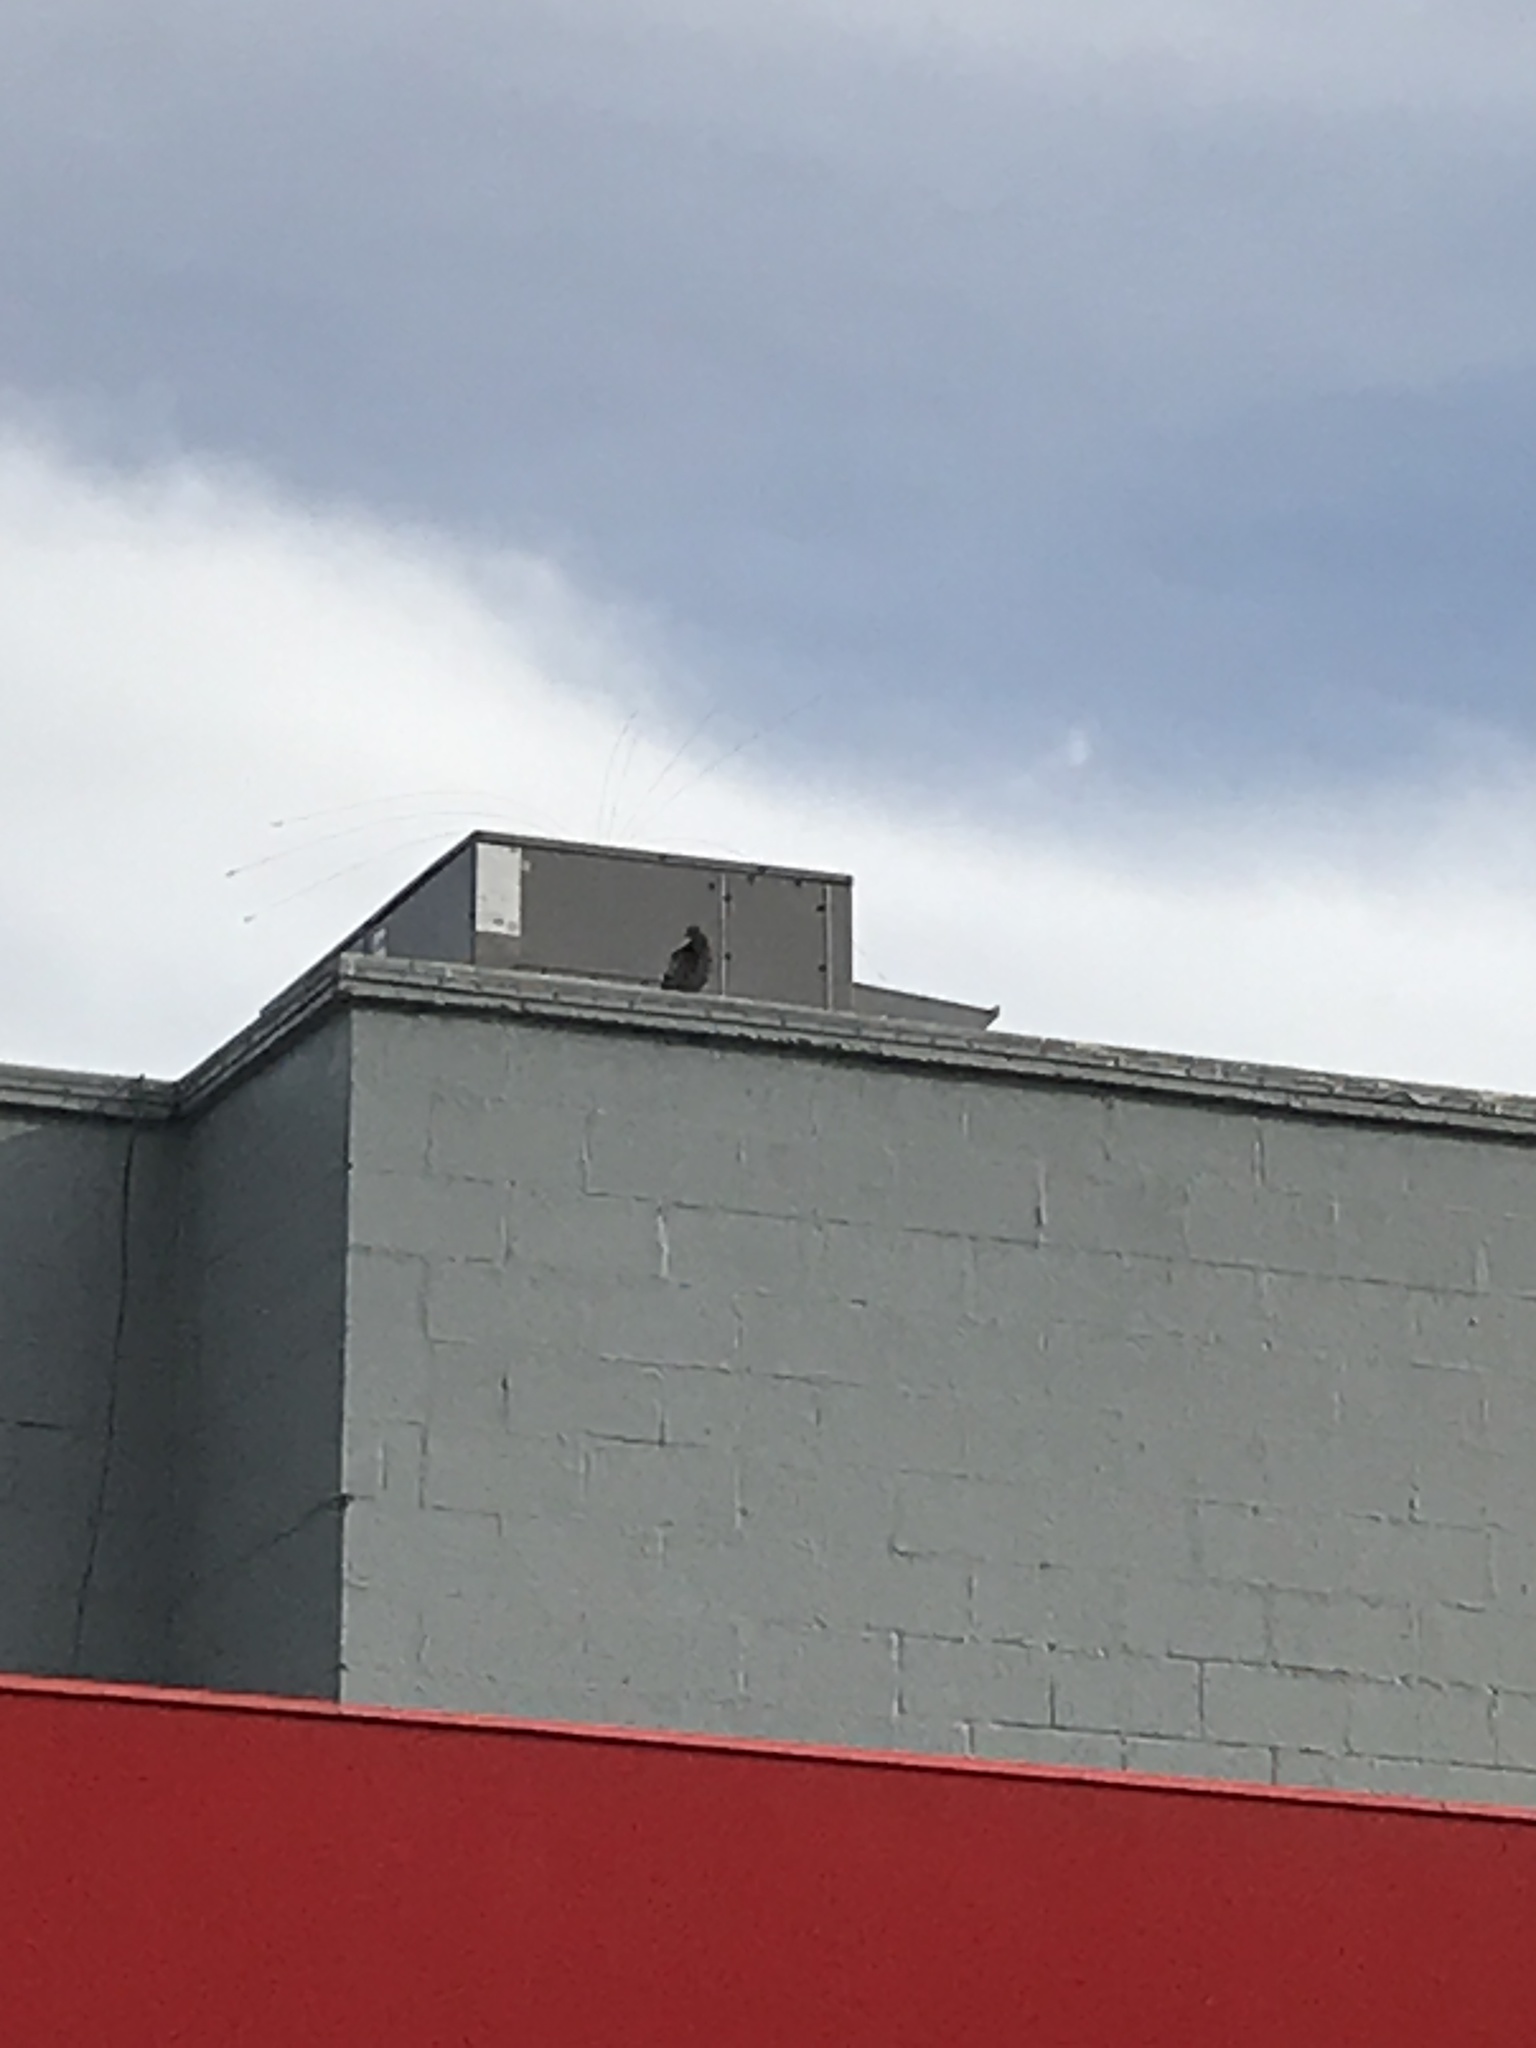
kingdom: Animalia
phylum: Chordata
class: Aves
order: Columbiformes
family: Columbidae
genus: Columba
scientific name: Columba livia
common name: Rock pigeon
